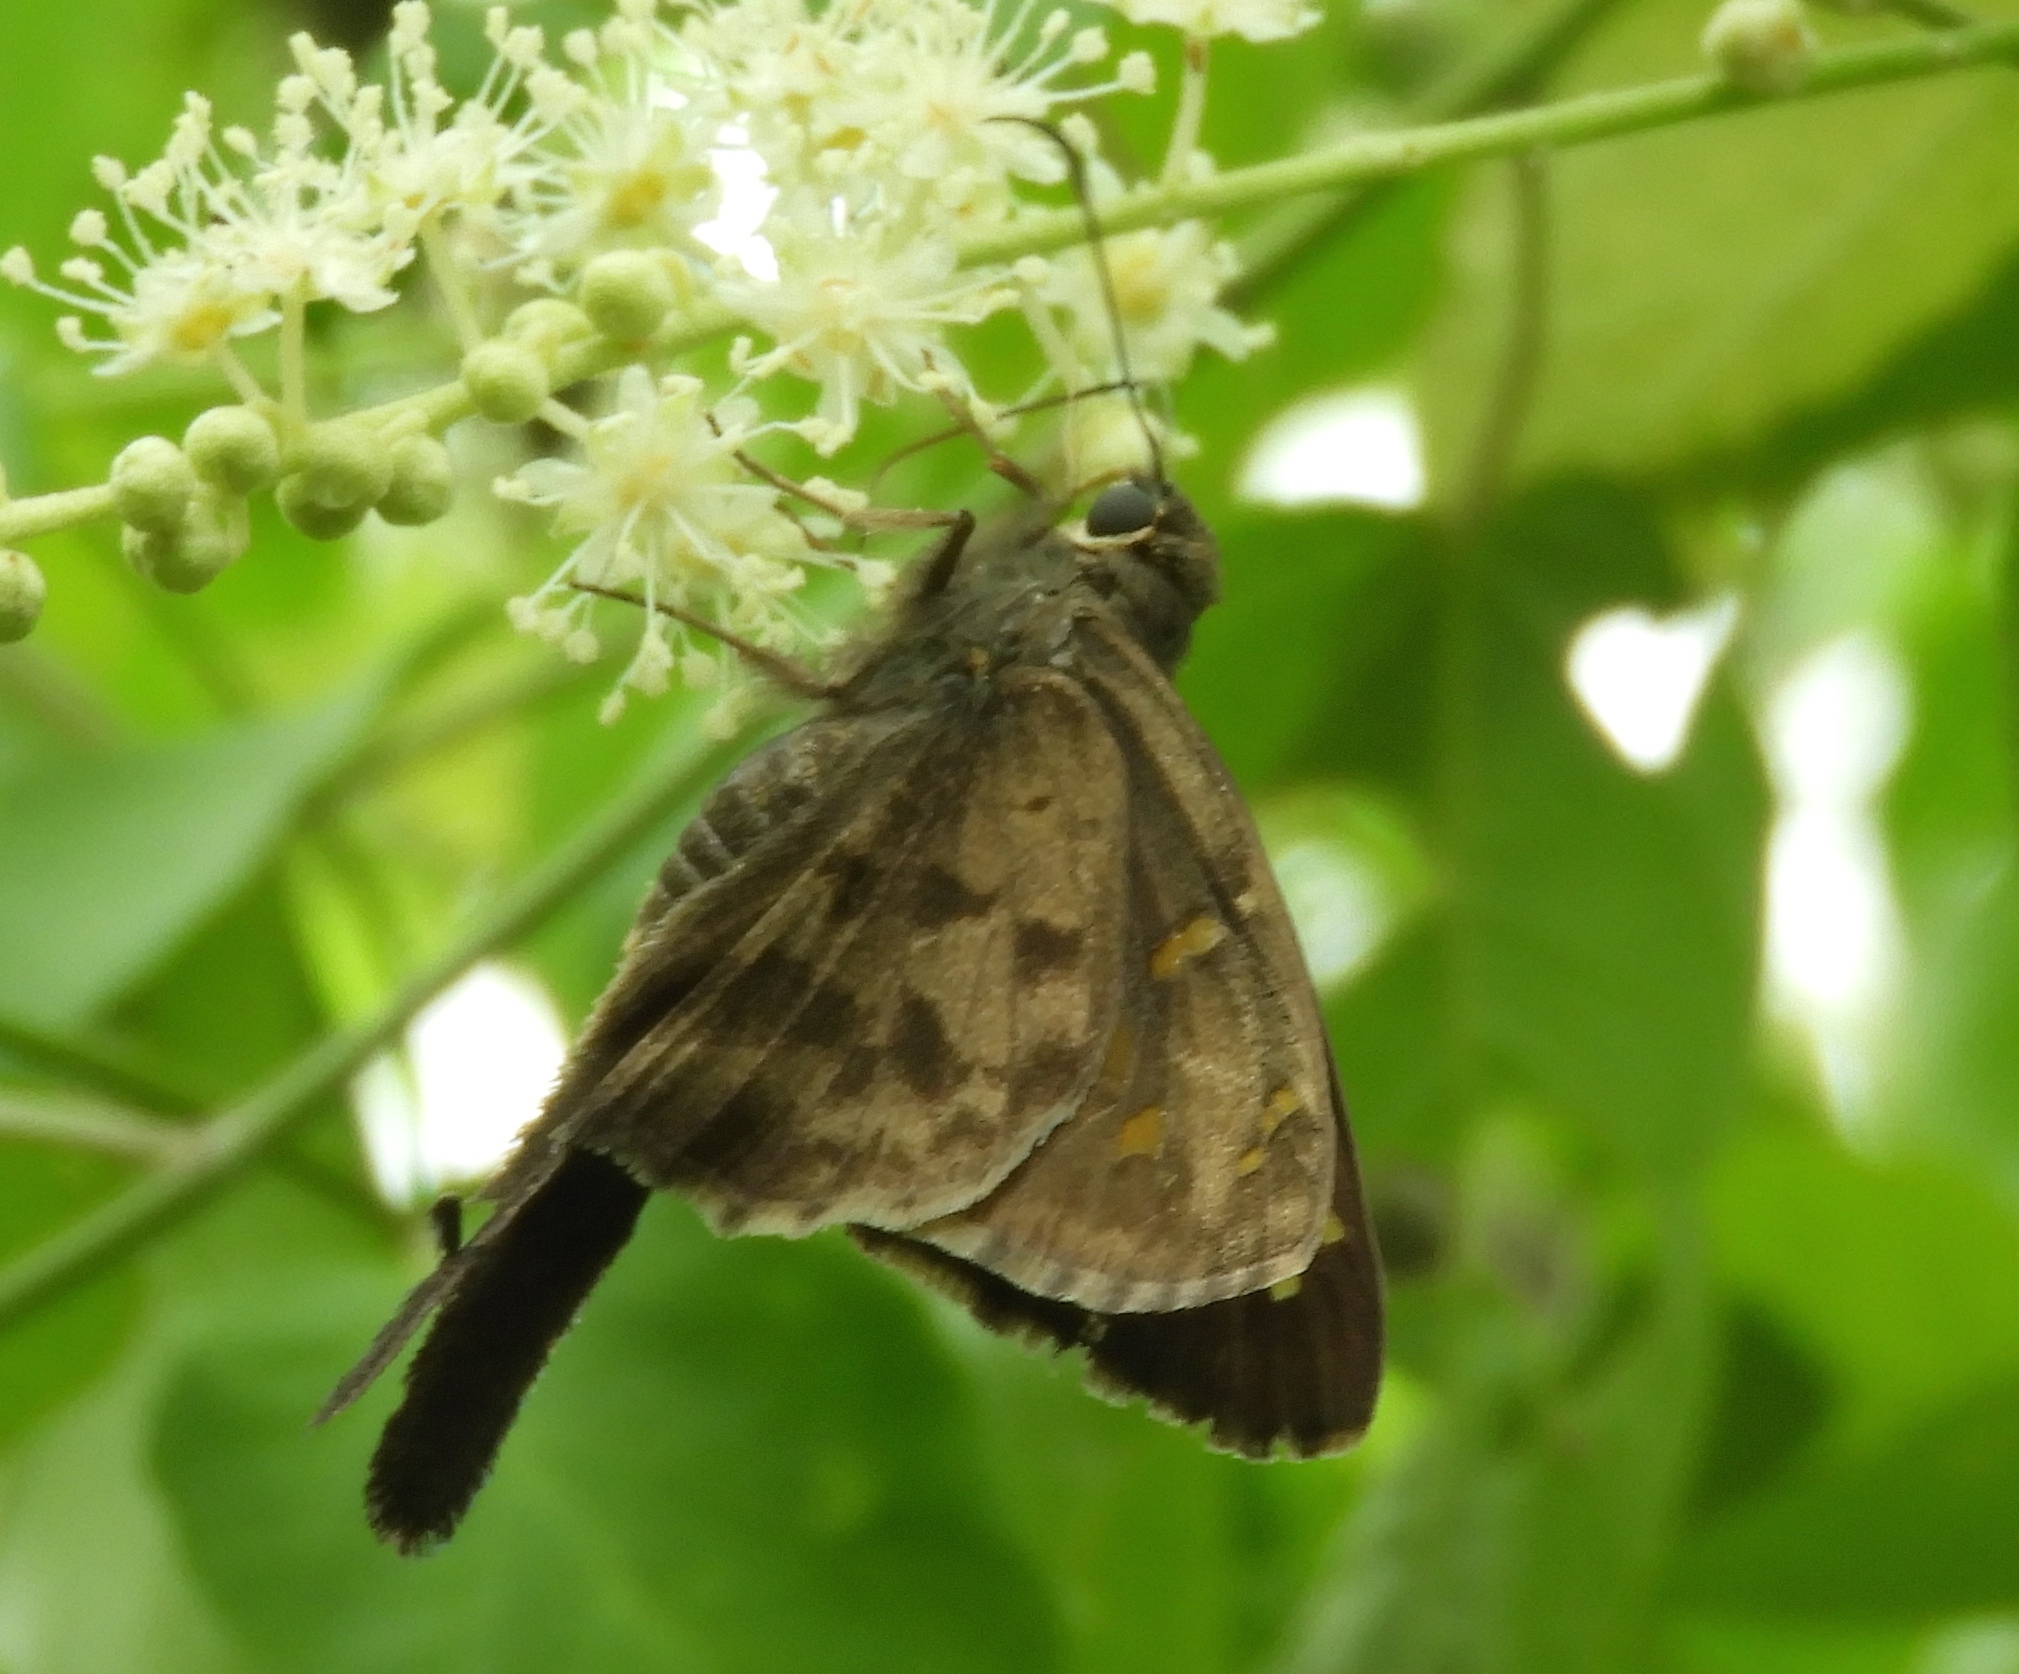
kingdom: Animalia
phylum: Arthropoda
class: Insecta
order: Lepidoptera
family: Hesperiidae
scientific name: Hesperiidae
